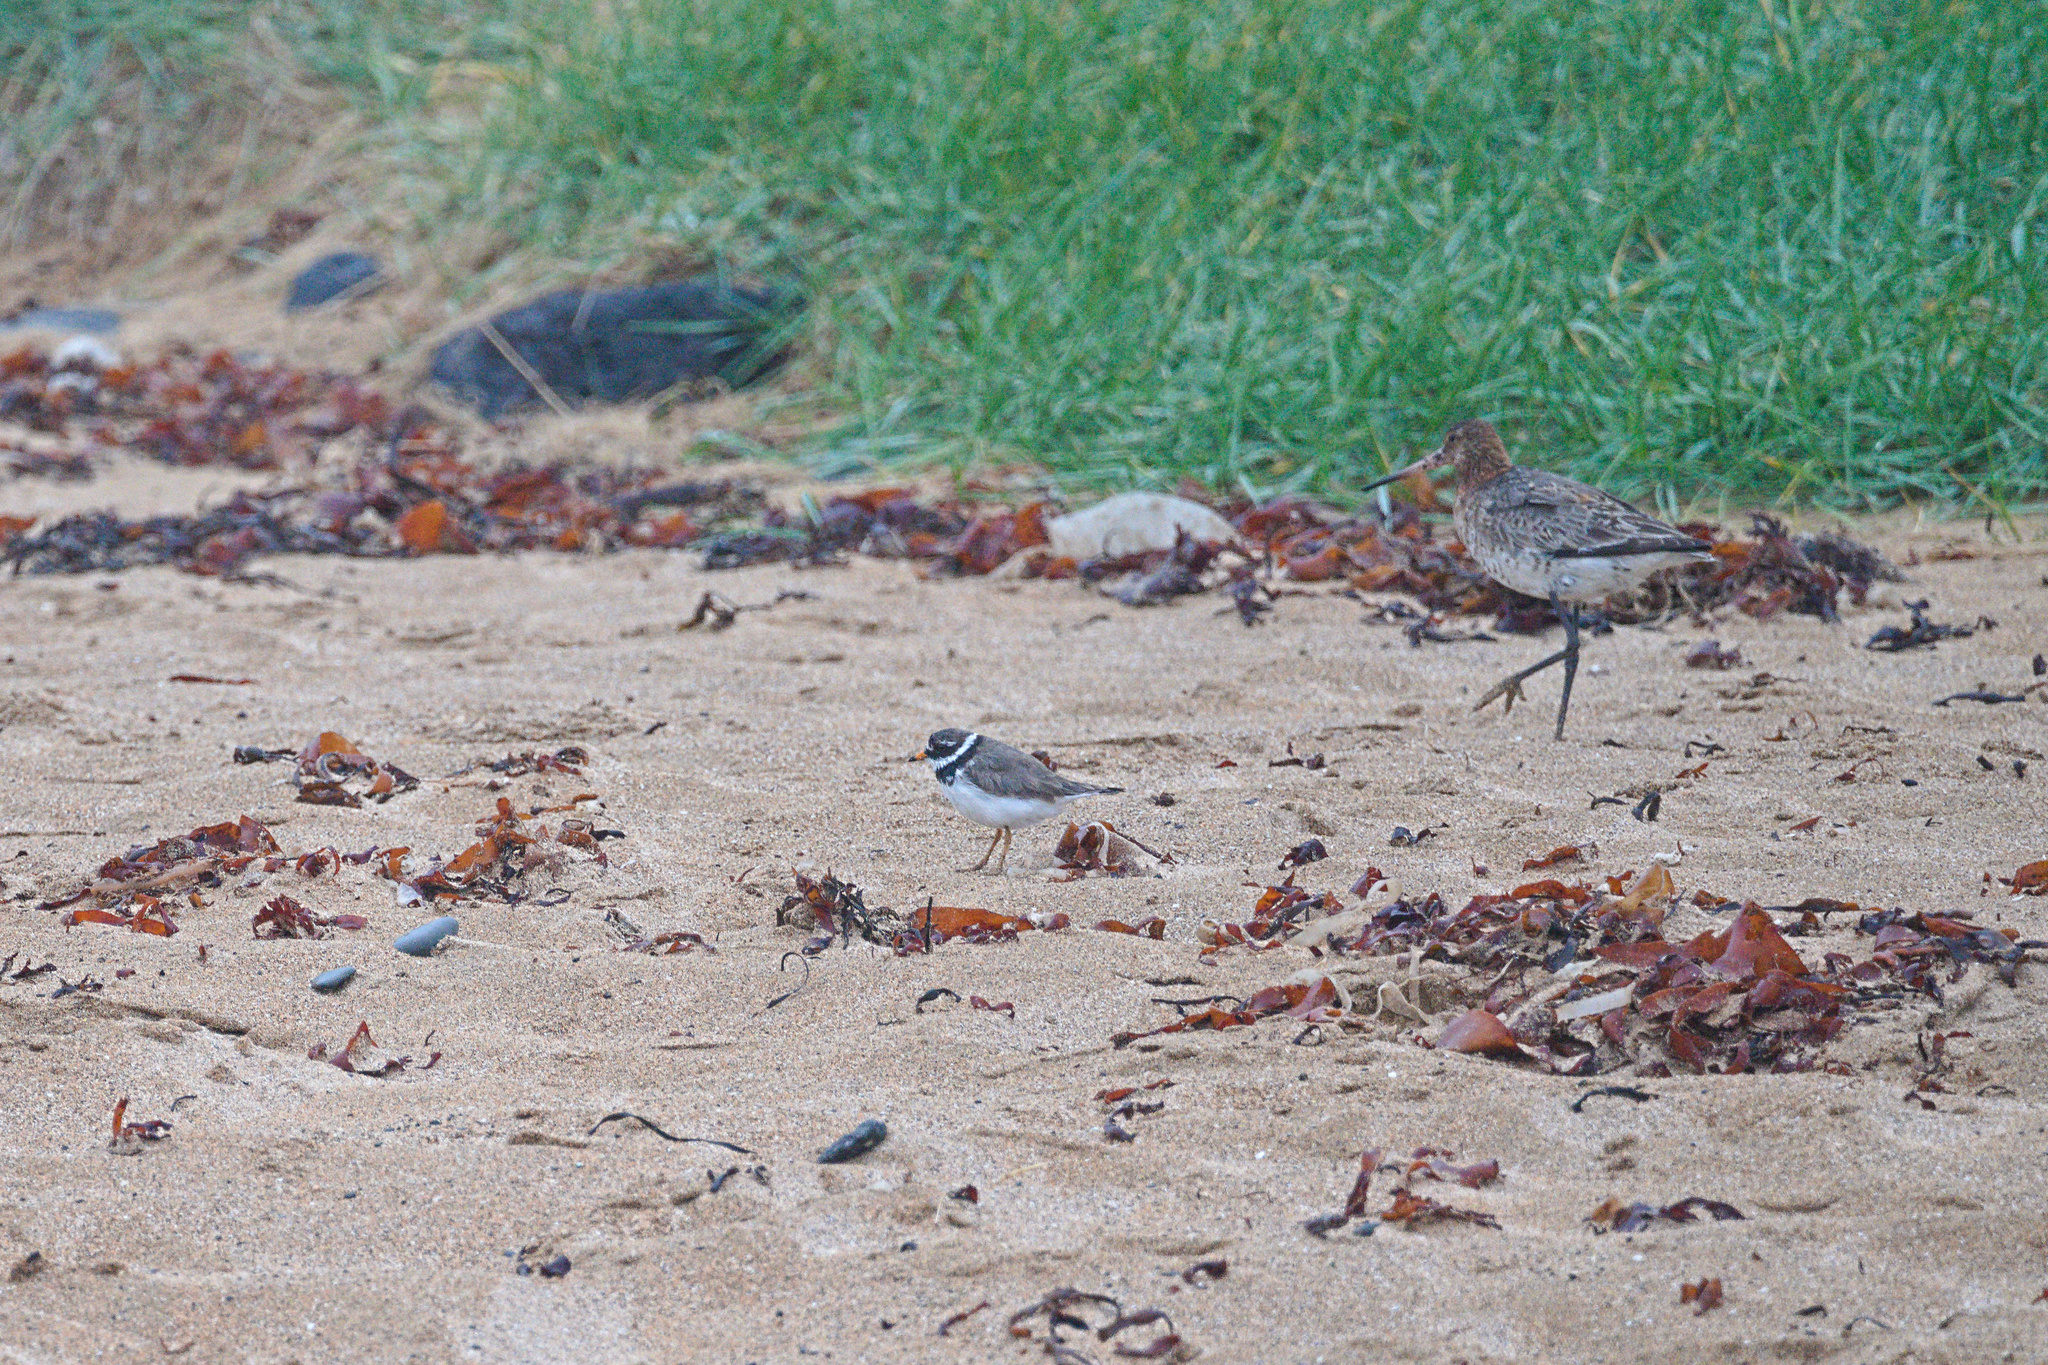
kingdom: Animalia
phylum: Chordata
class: Aves
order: Charadriiformes
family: Charadriidae
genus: Charadrius
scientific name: Charadrius hiaticula
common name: Common ringed plover
